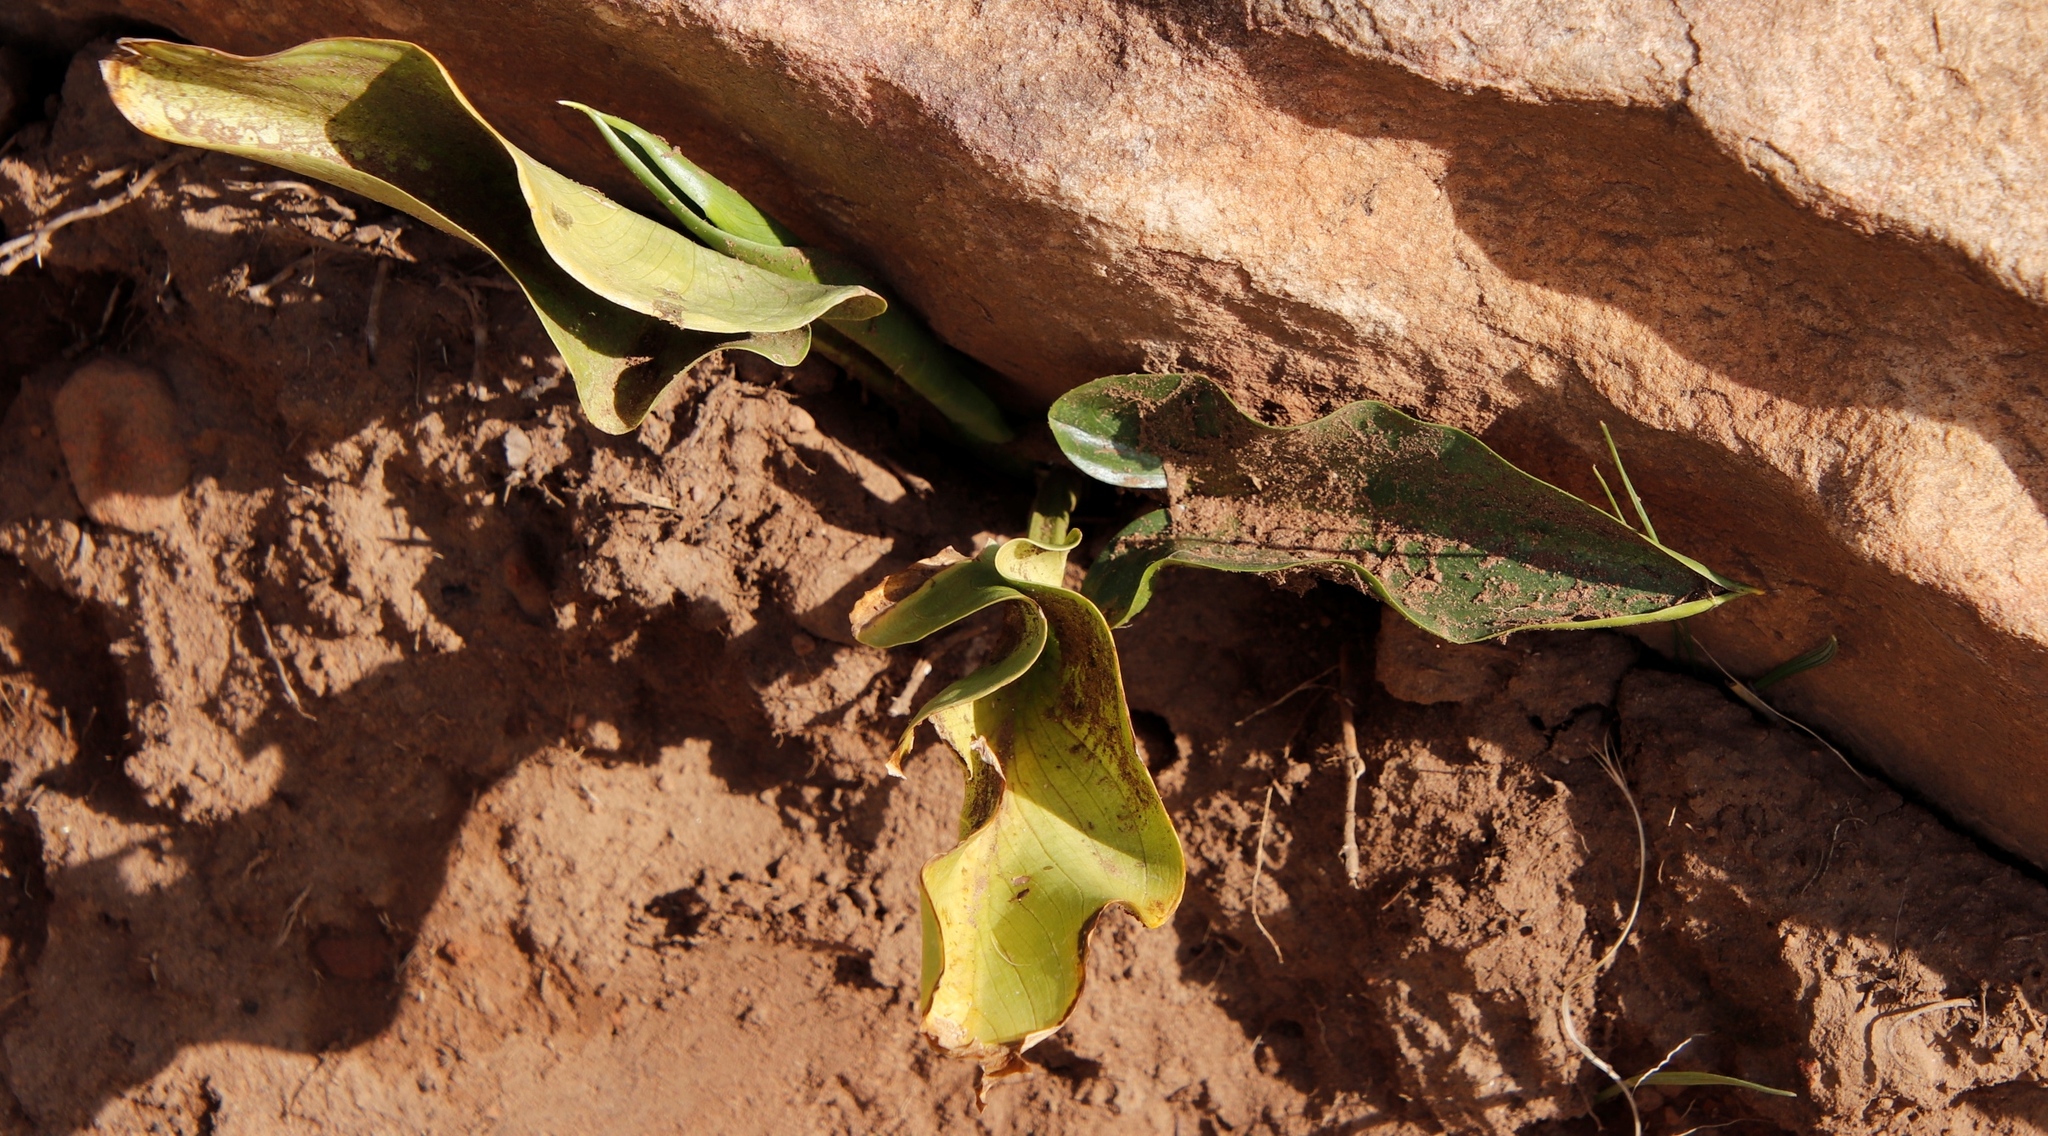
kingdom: Plantae
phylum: Tracheophyta
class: Liliopsida
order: Alismatales
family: Araceae
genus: Zantedeschia
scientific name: Zantedeschia aethiopica
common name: Altar-lily
